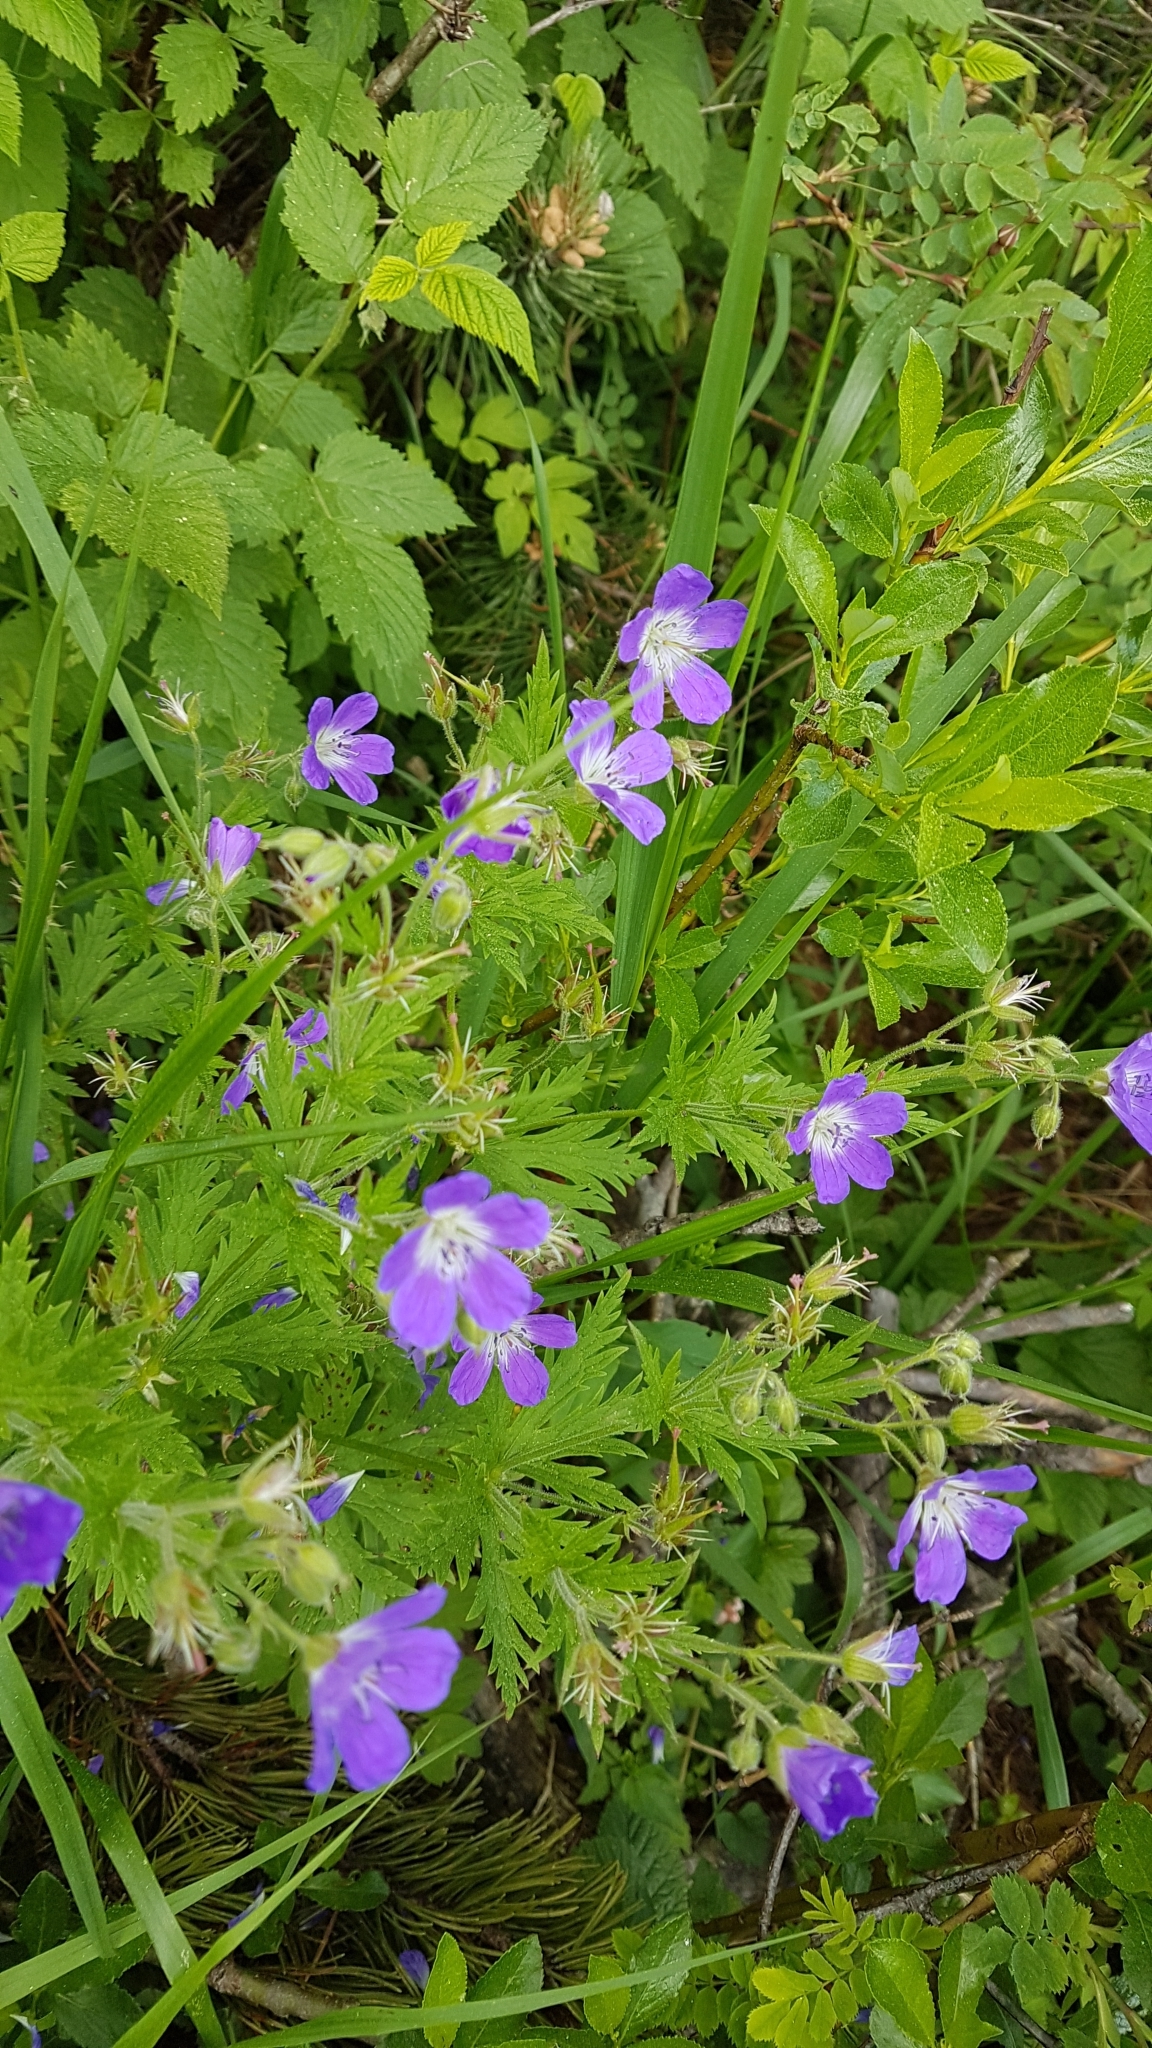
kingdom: Plantae
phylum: Tracheophyta
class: Magnoliopsida
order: Geraniales
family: Geraniaceae
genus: Geranium
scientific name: Geranium sylvaticum
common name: Wood crane's-bill
